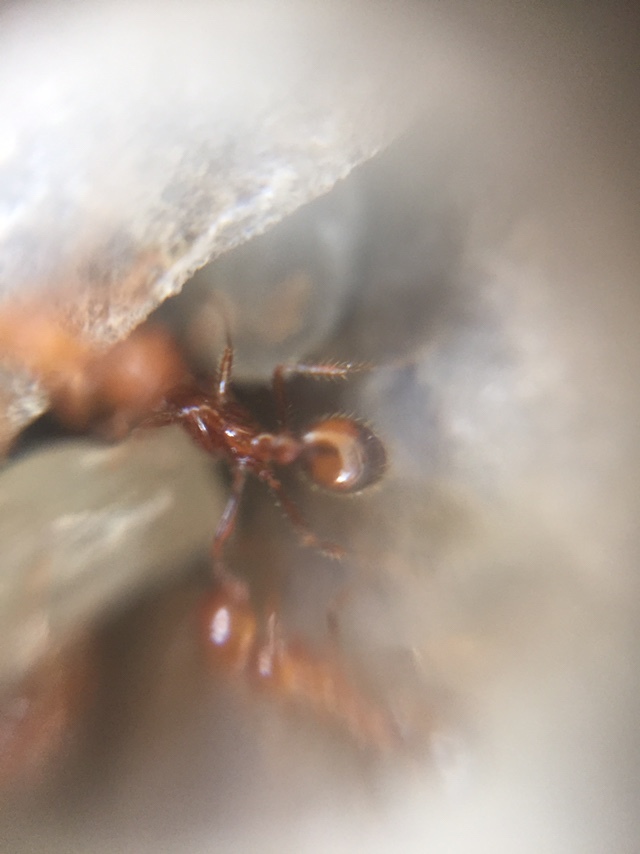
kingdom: Animalia
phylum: Arthropoda
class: Insecta
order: Hymenoptera
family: Formicidae
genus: Solenopsis
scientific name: Solenopsis geminata
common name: Tropical fire ant
